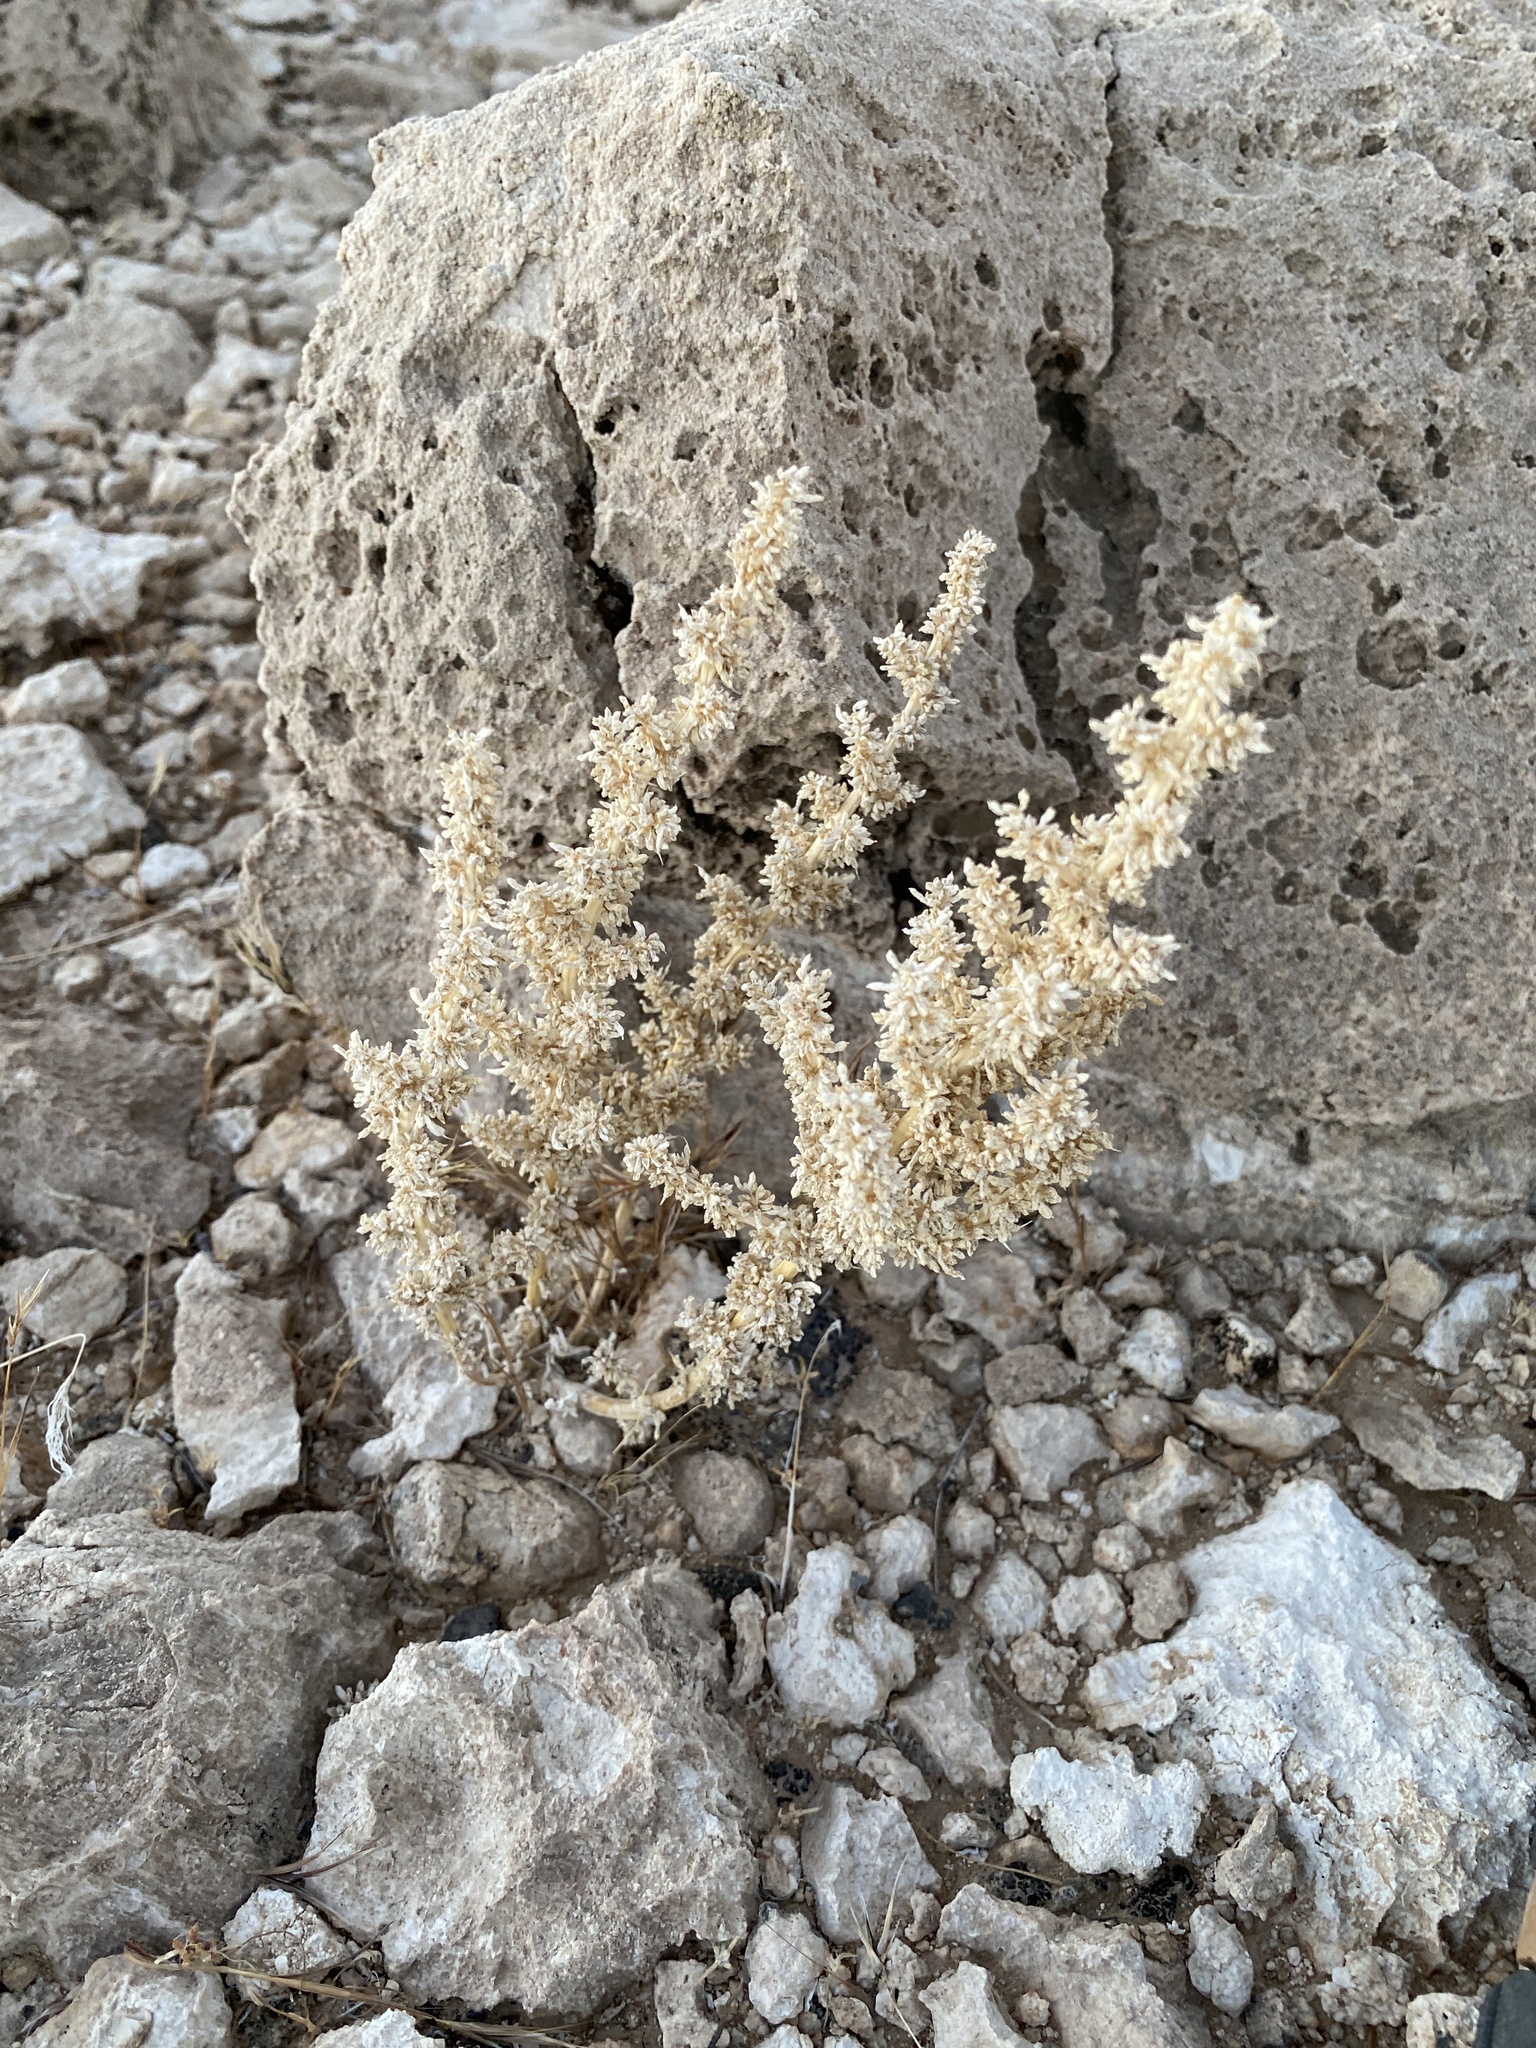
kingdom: Plantae
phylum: Tracheophyta
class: Magnoliopsida
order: Caryophyllales
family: Amaranthaceae
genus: Halogeton
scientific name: Halogeton glomeratus
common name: Saltlover
